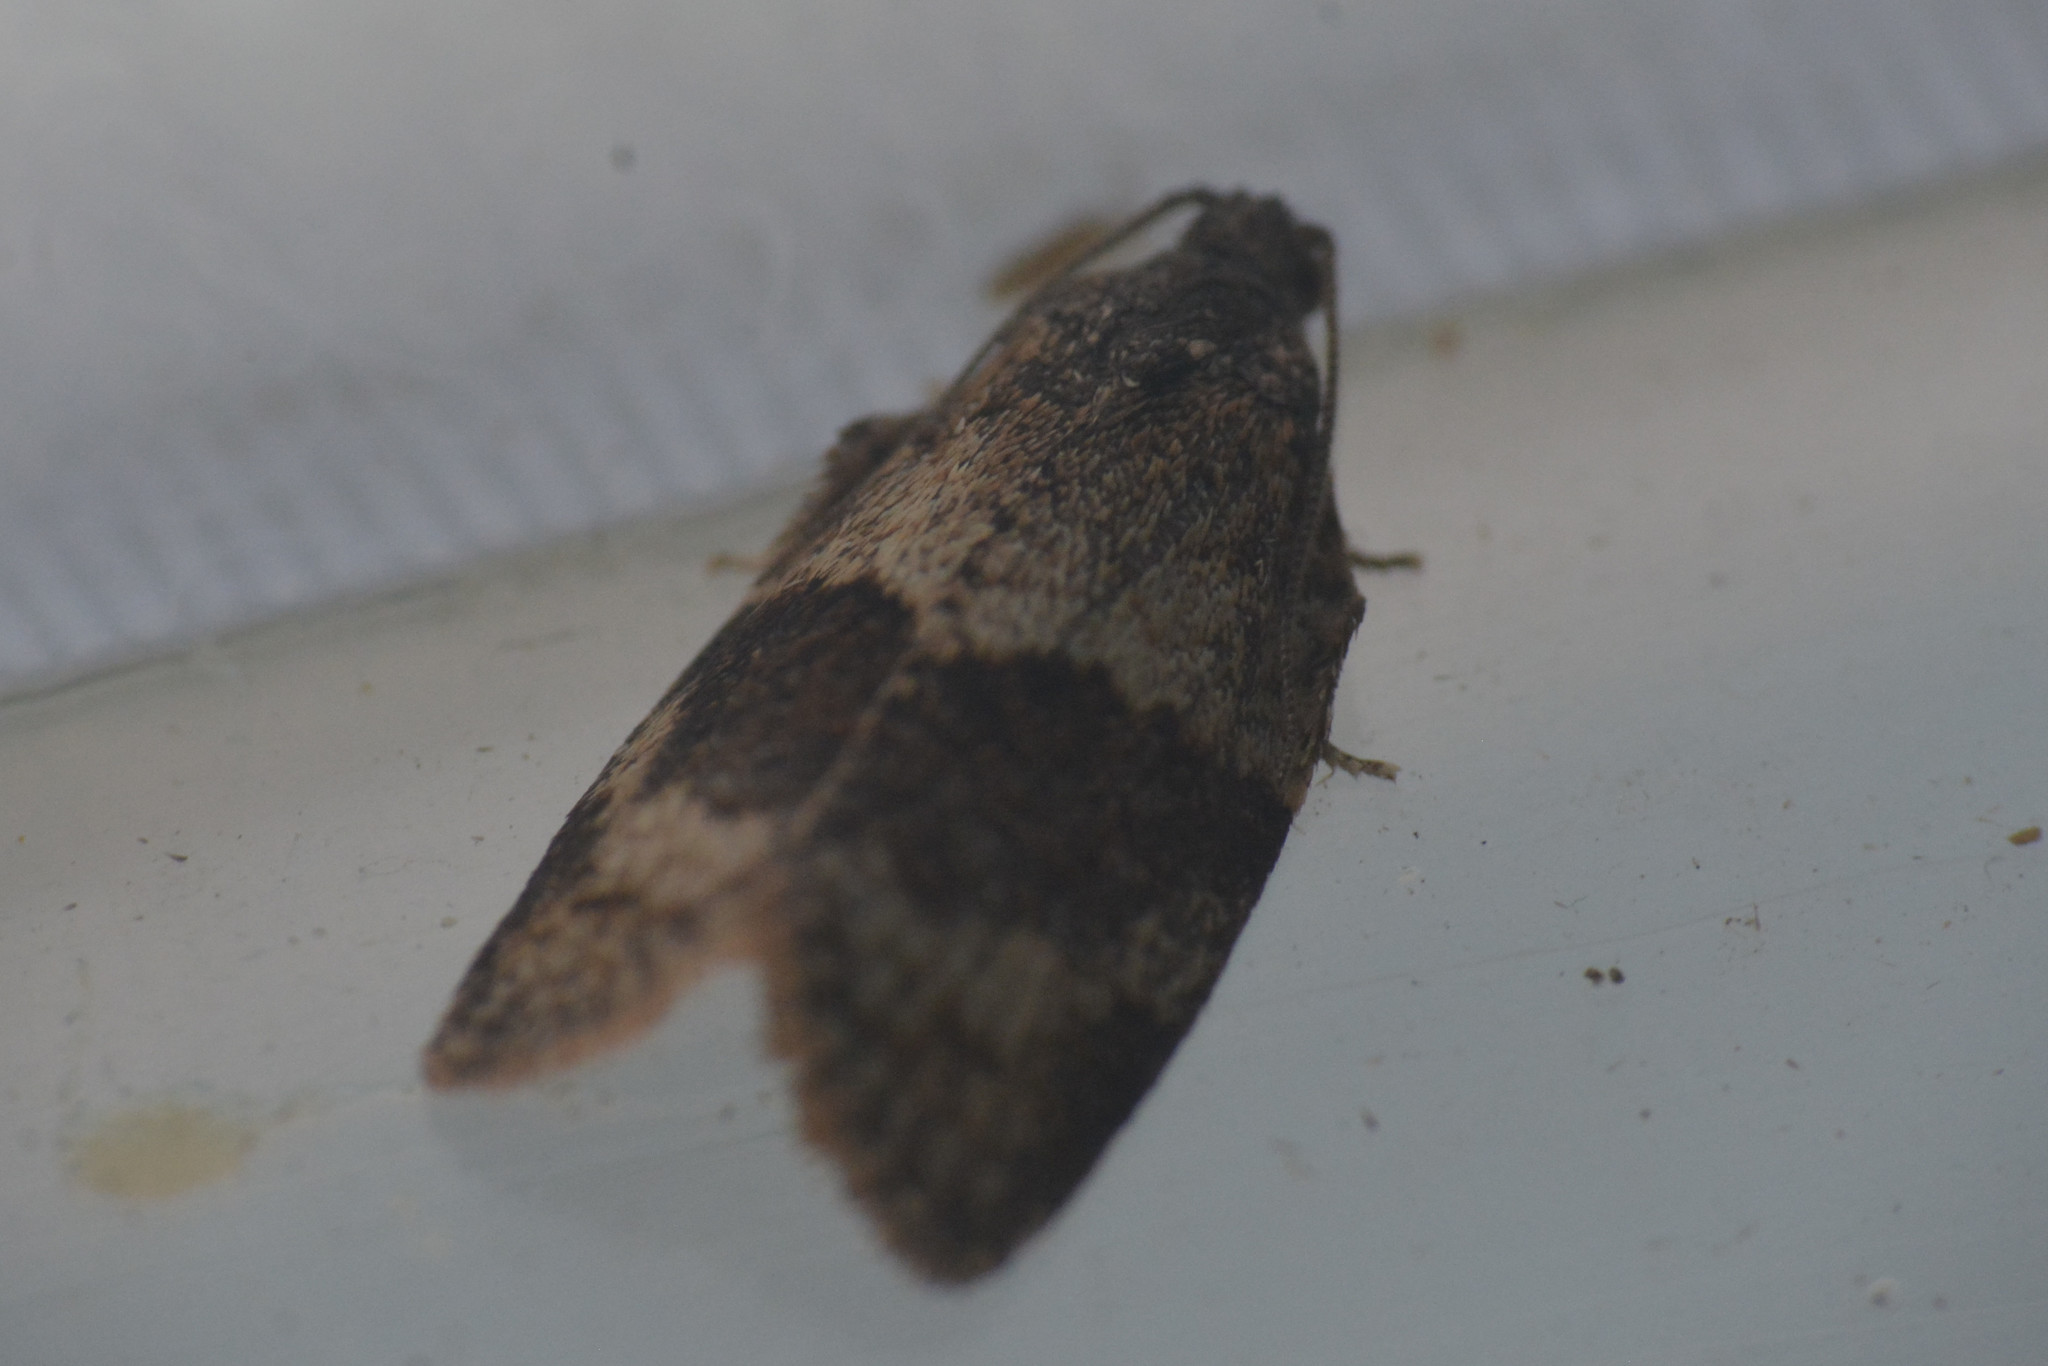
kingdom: Animalia
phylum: Arthropoda
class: Insecta
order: Lepidoptera
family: Tortricidae
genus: Syndemis
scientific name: Syndemis musculana
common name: Dark-barred twist
